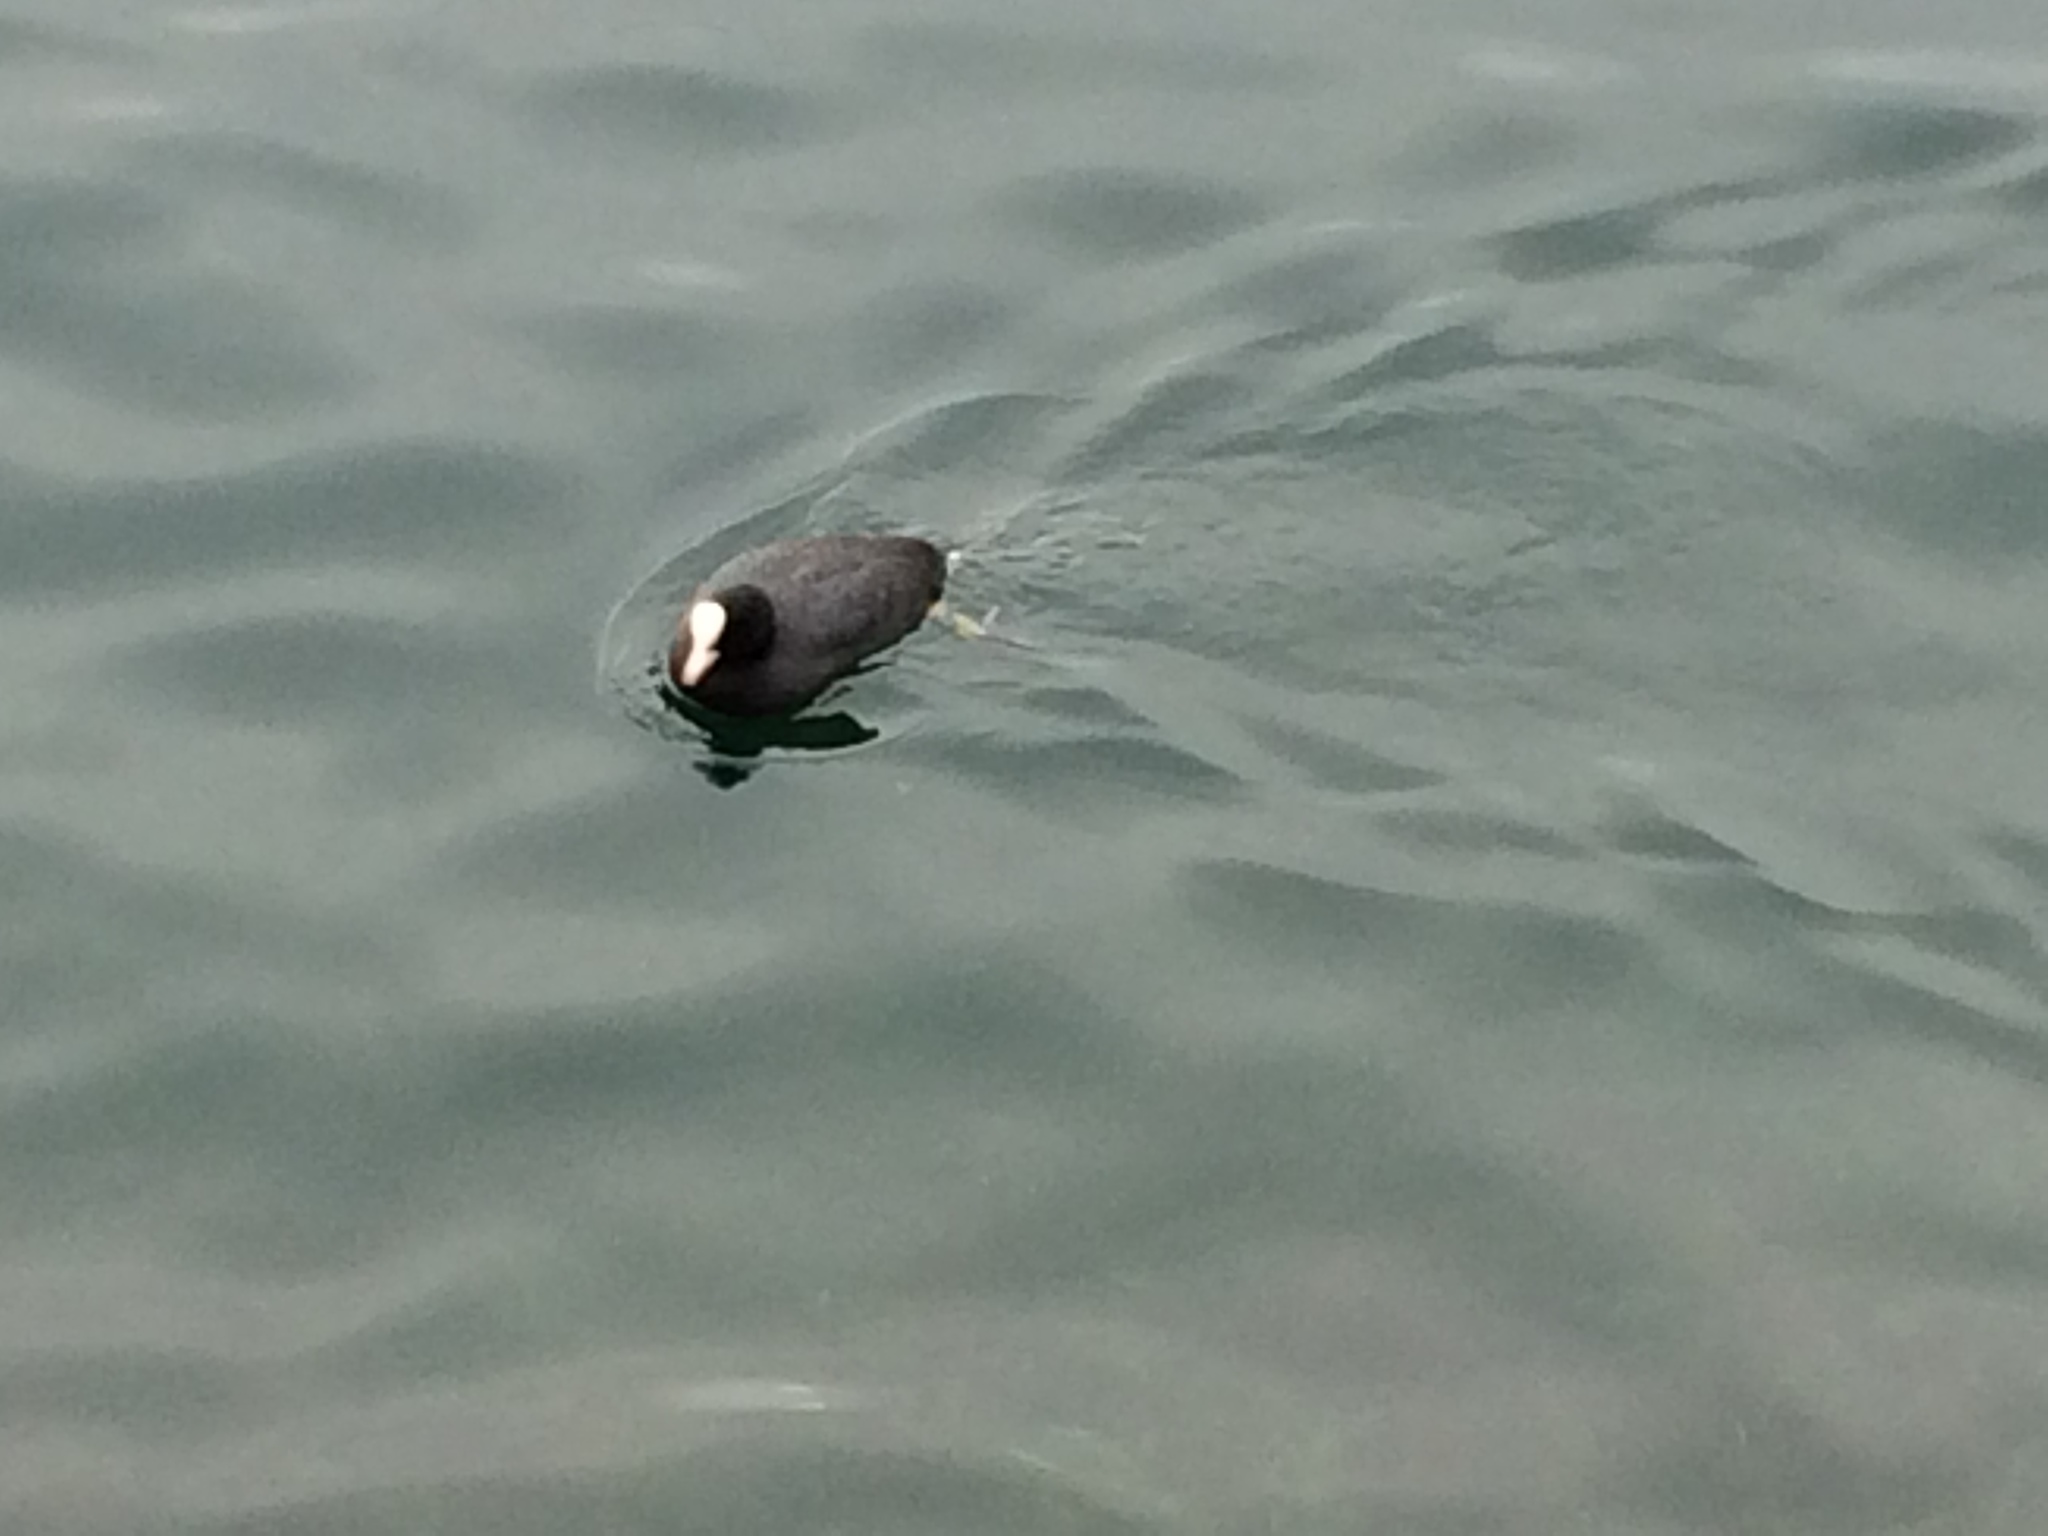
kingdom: Animalia
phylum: Chordata
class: Aves
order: Gruiformes
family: Rallidae
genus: Fulica
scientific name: Fulica atra
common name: Eurasian coot
